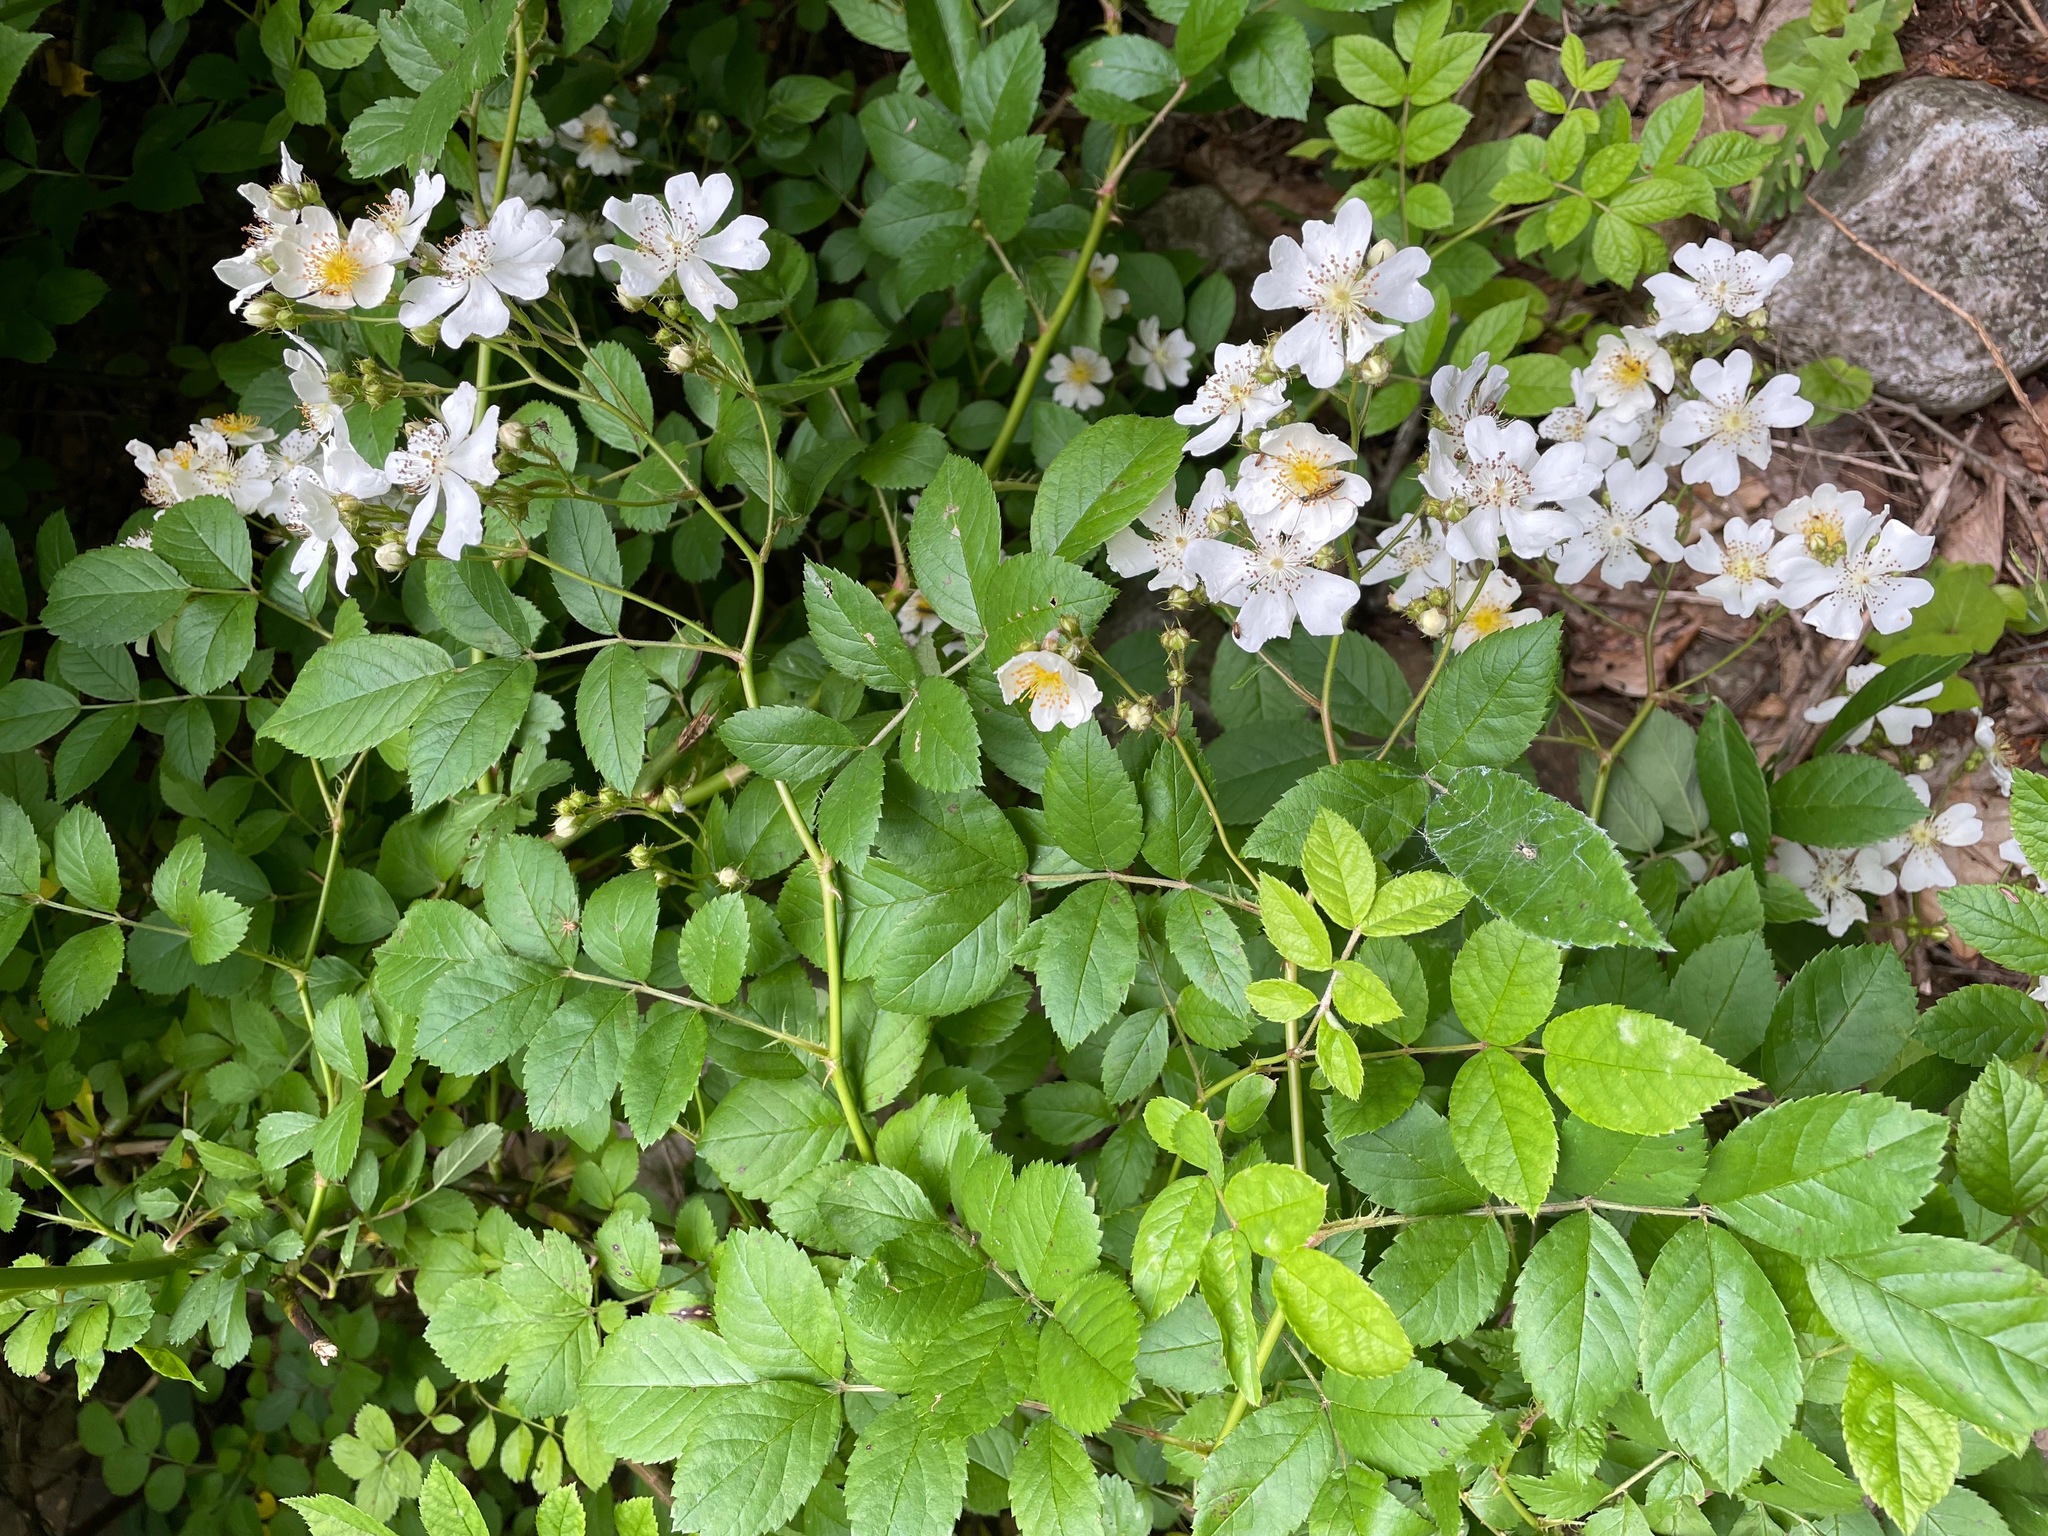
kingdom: Plantae
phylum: Tracheophyta
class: Magnoliopsida
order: Rosales
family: Rosaceae
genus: Rosa
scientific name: Rosa multiflora
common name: Multiflora rose
